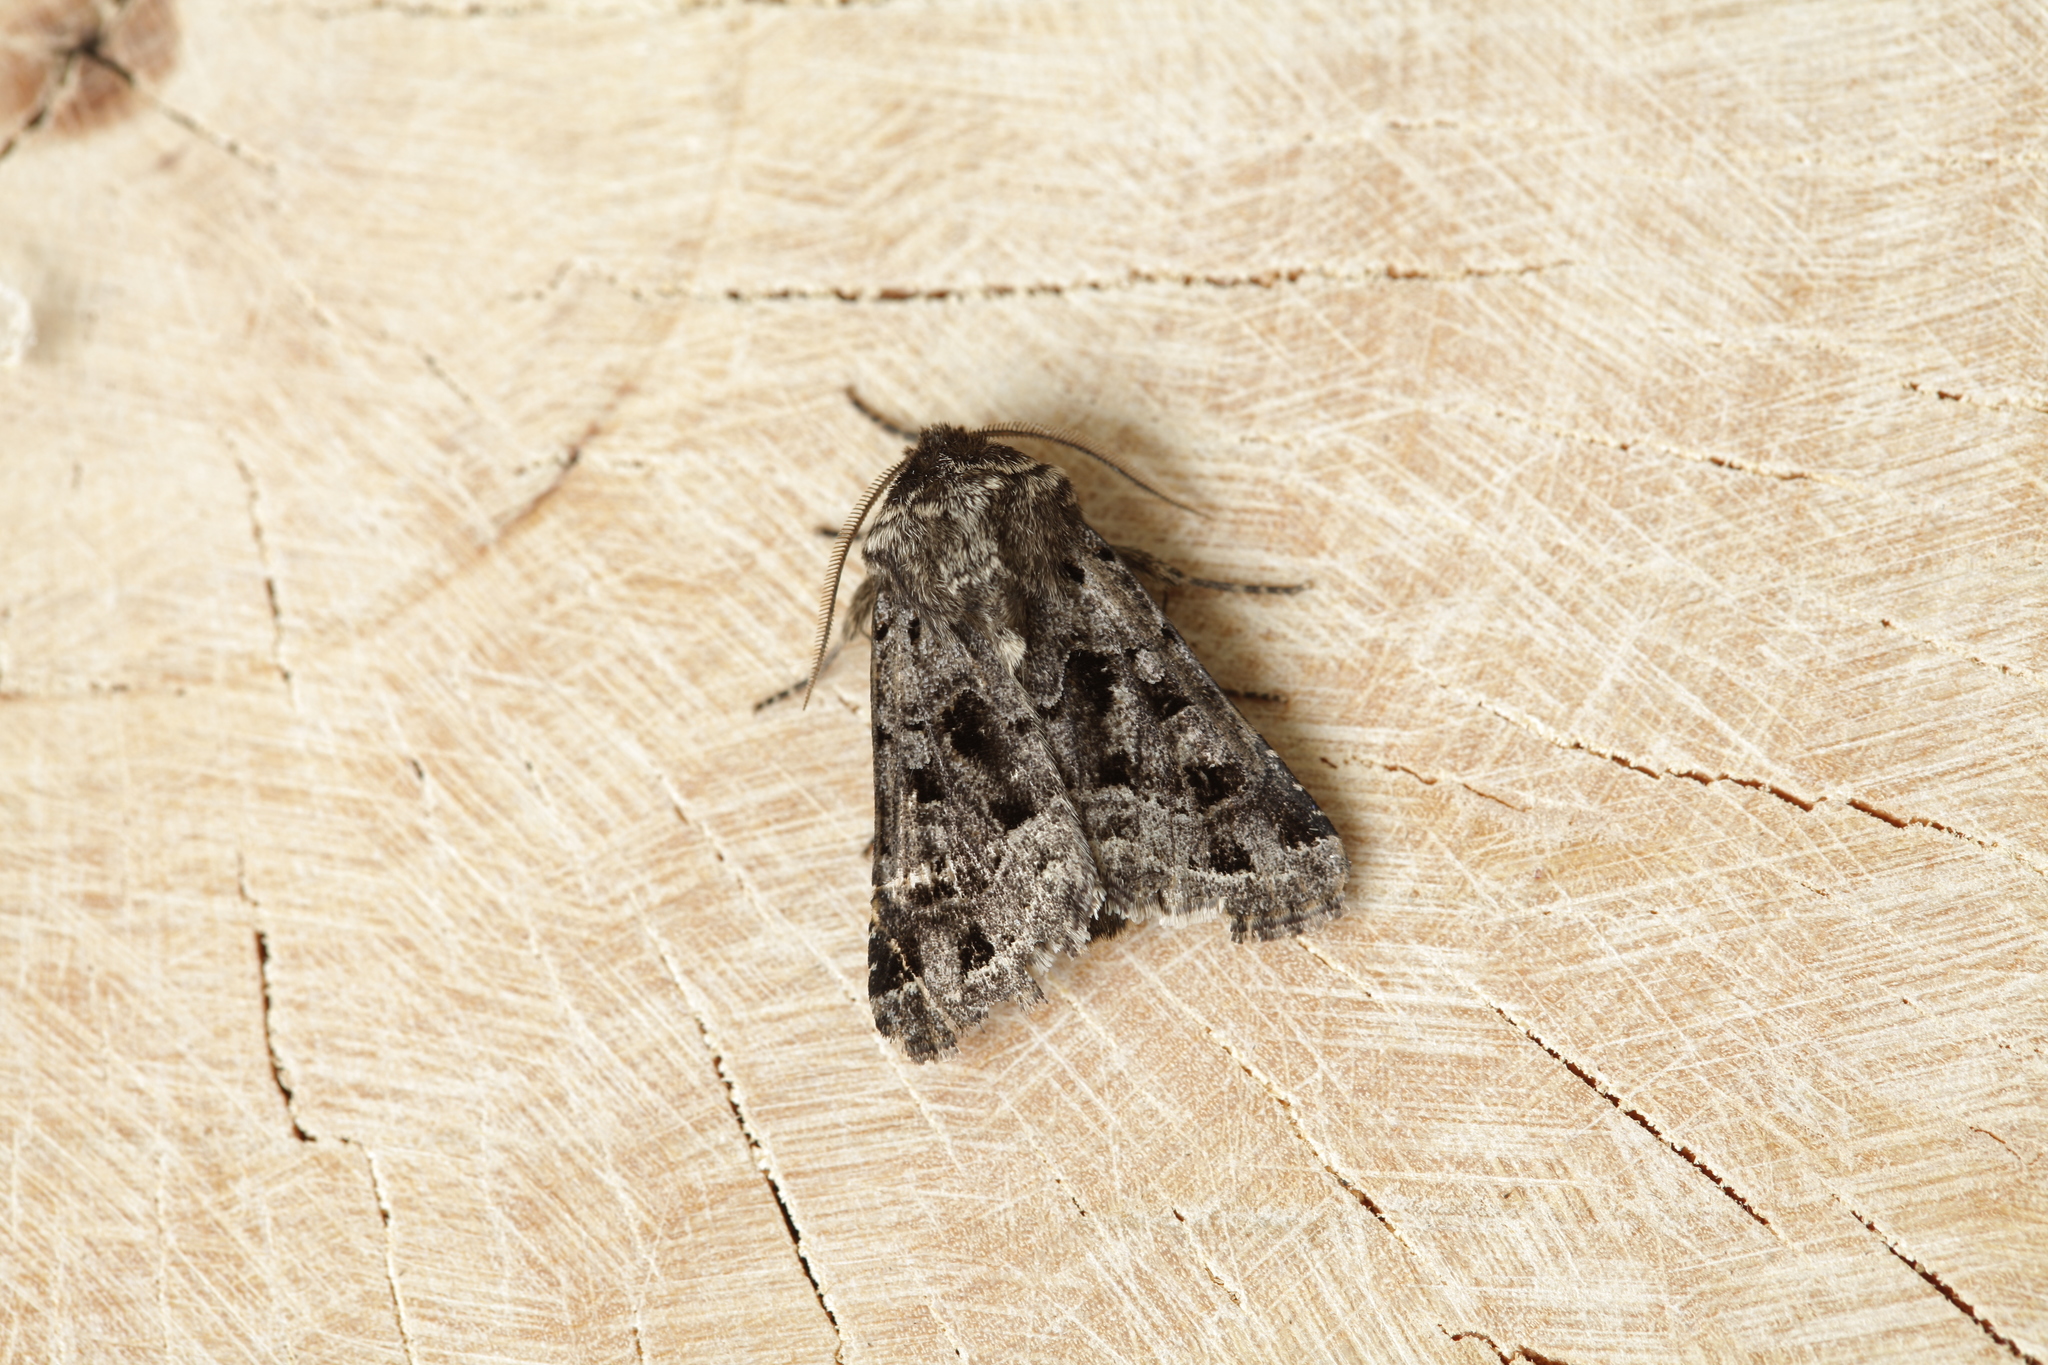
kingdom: Animalia
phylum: Arthropoda
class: Insecta
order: Lepidoptera
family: Noctuidae
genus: Saragossa
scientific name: Saragossa porosa
